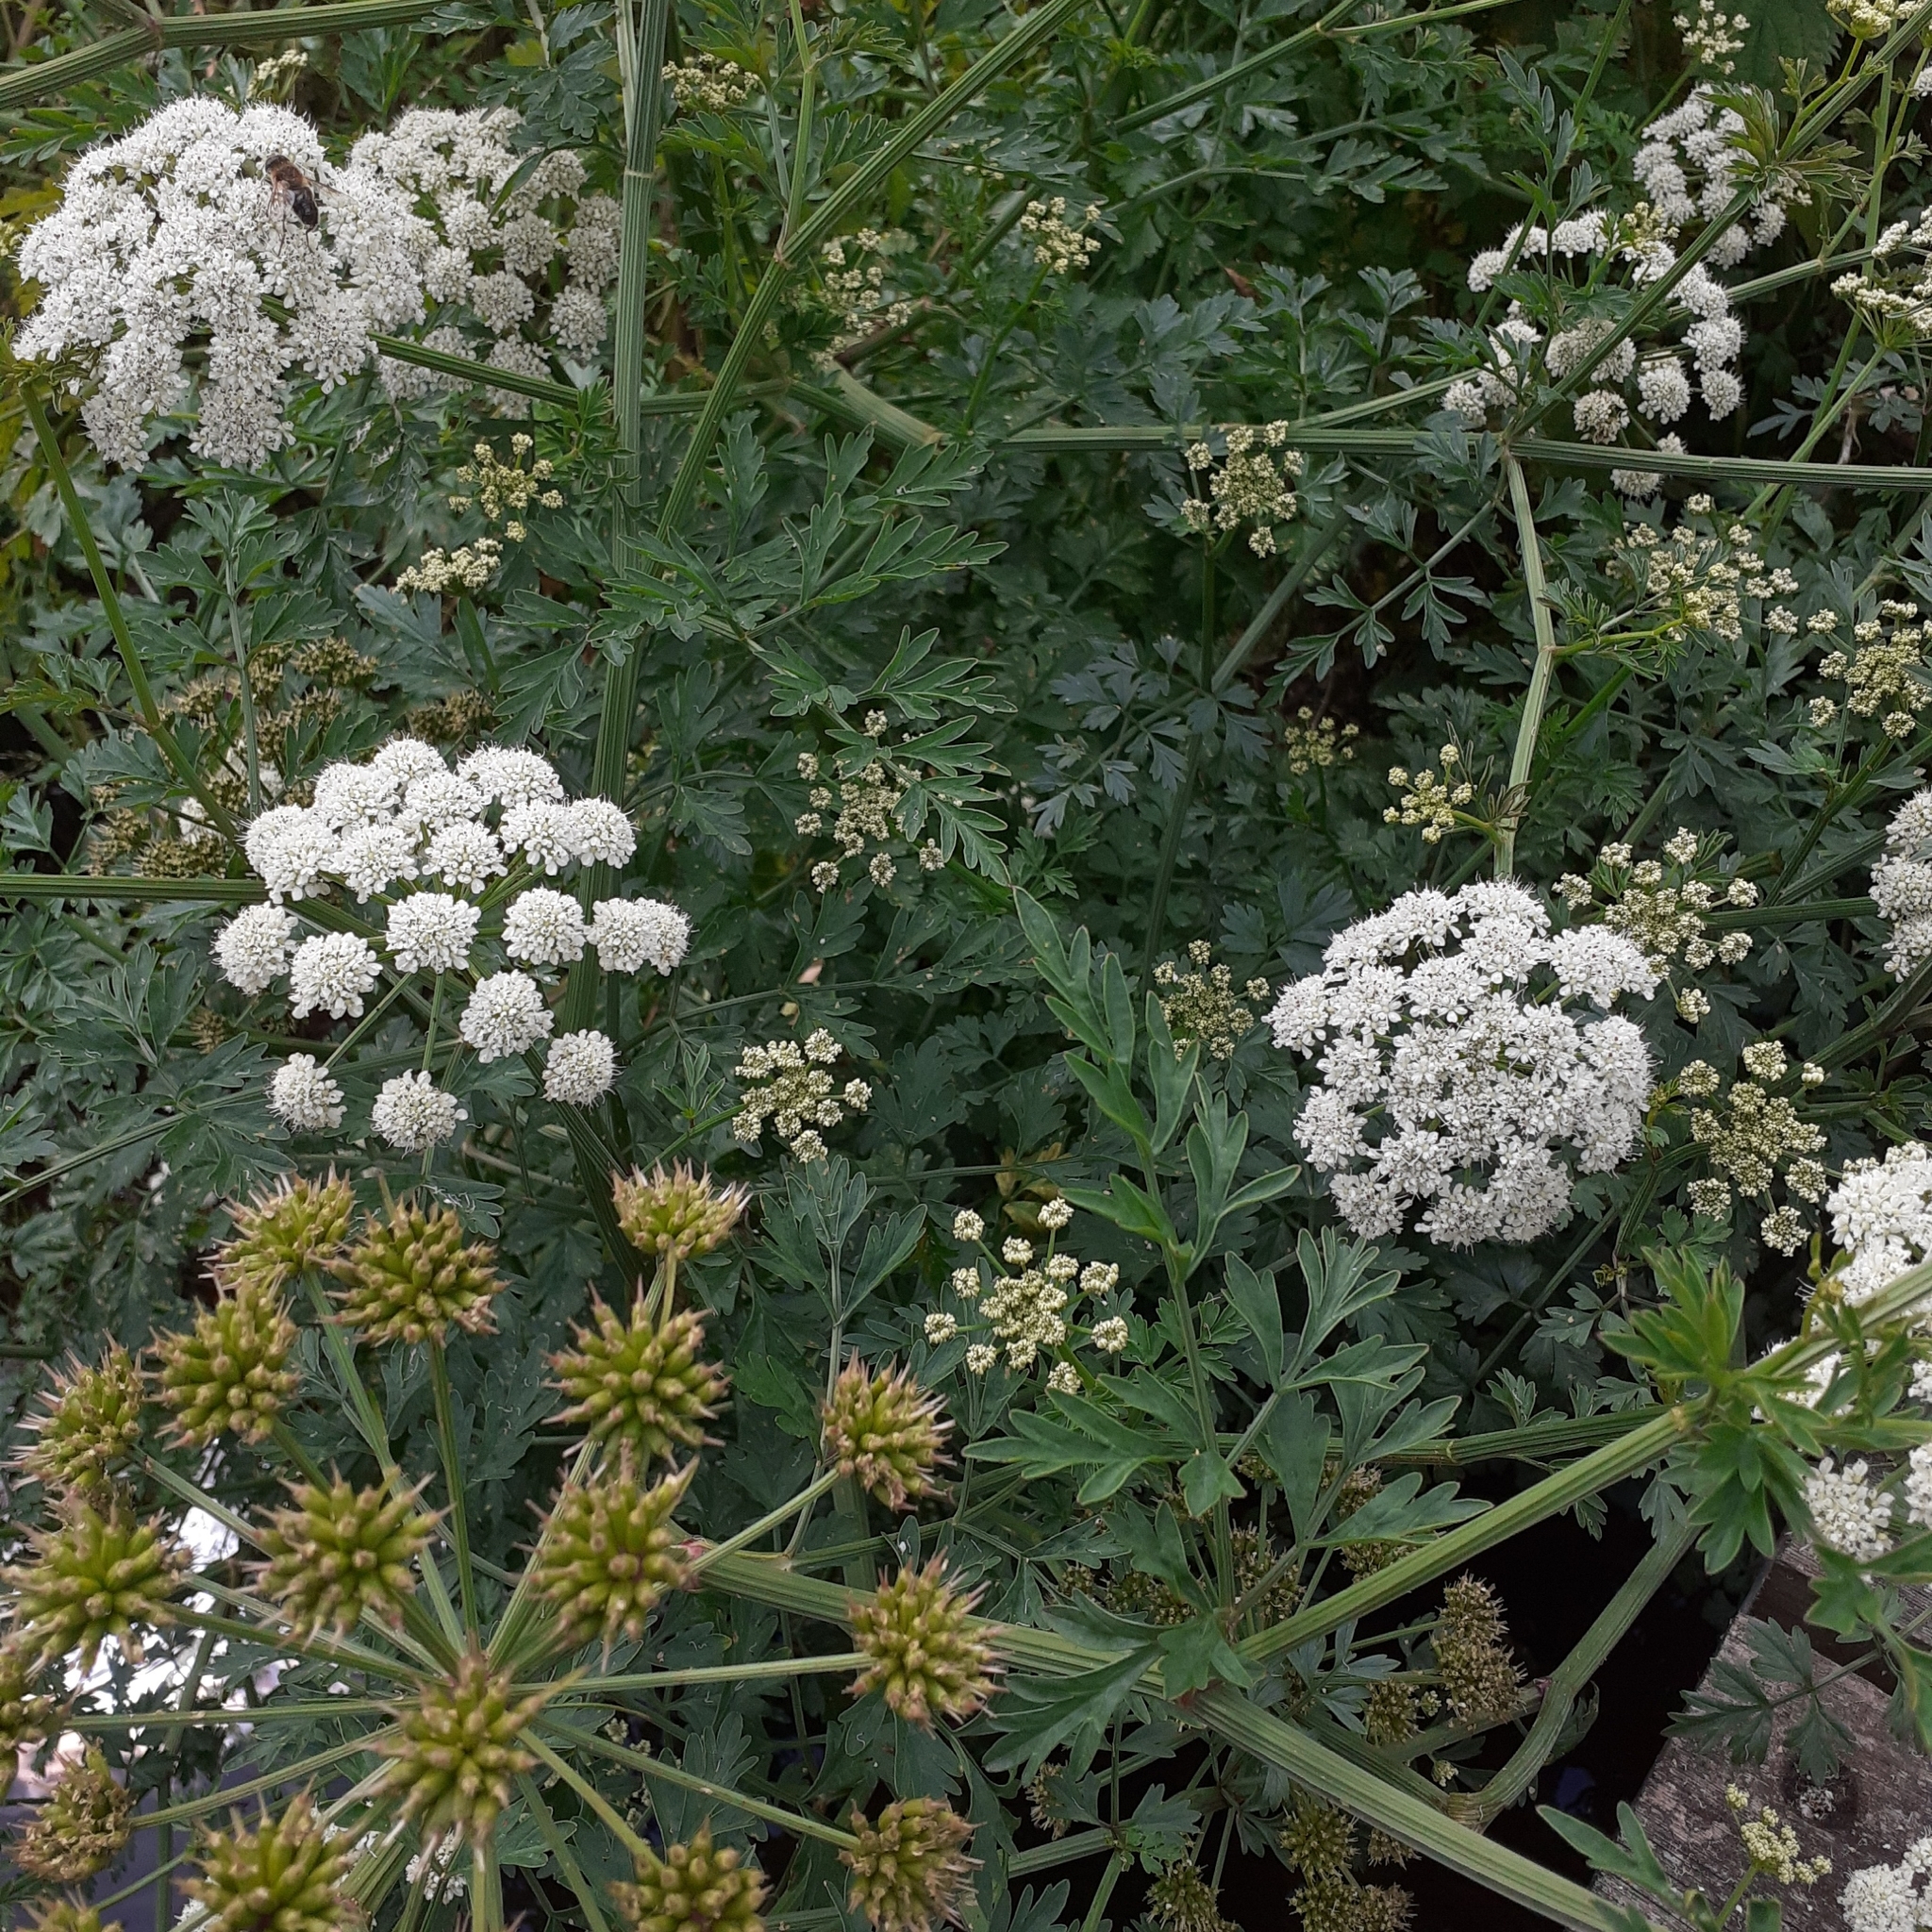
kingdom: Plantae
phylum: Tracheophyta
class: Magnoliopsida
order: Apiales
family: Apiaceae
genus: Oenanthe
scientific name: Oenanthe crocata
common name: Hemlock water-dropwort
